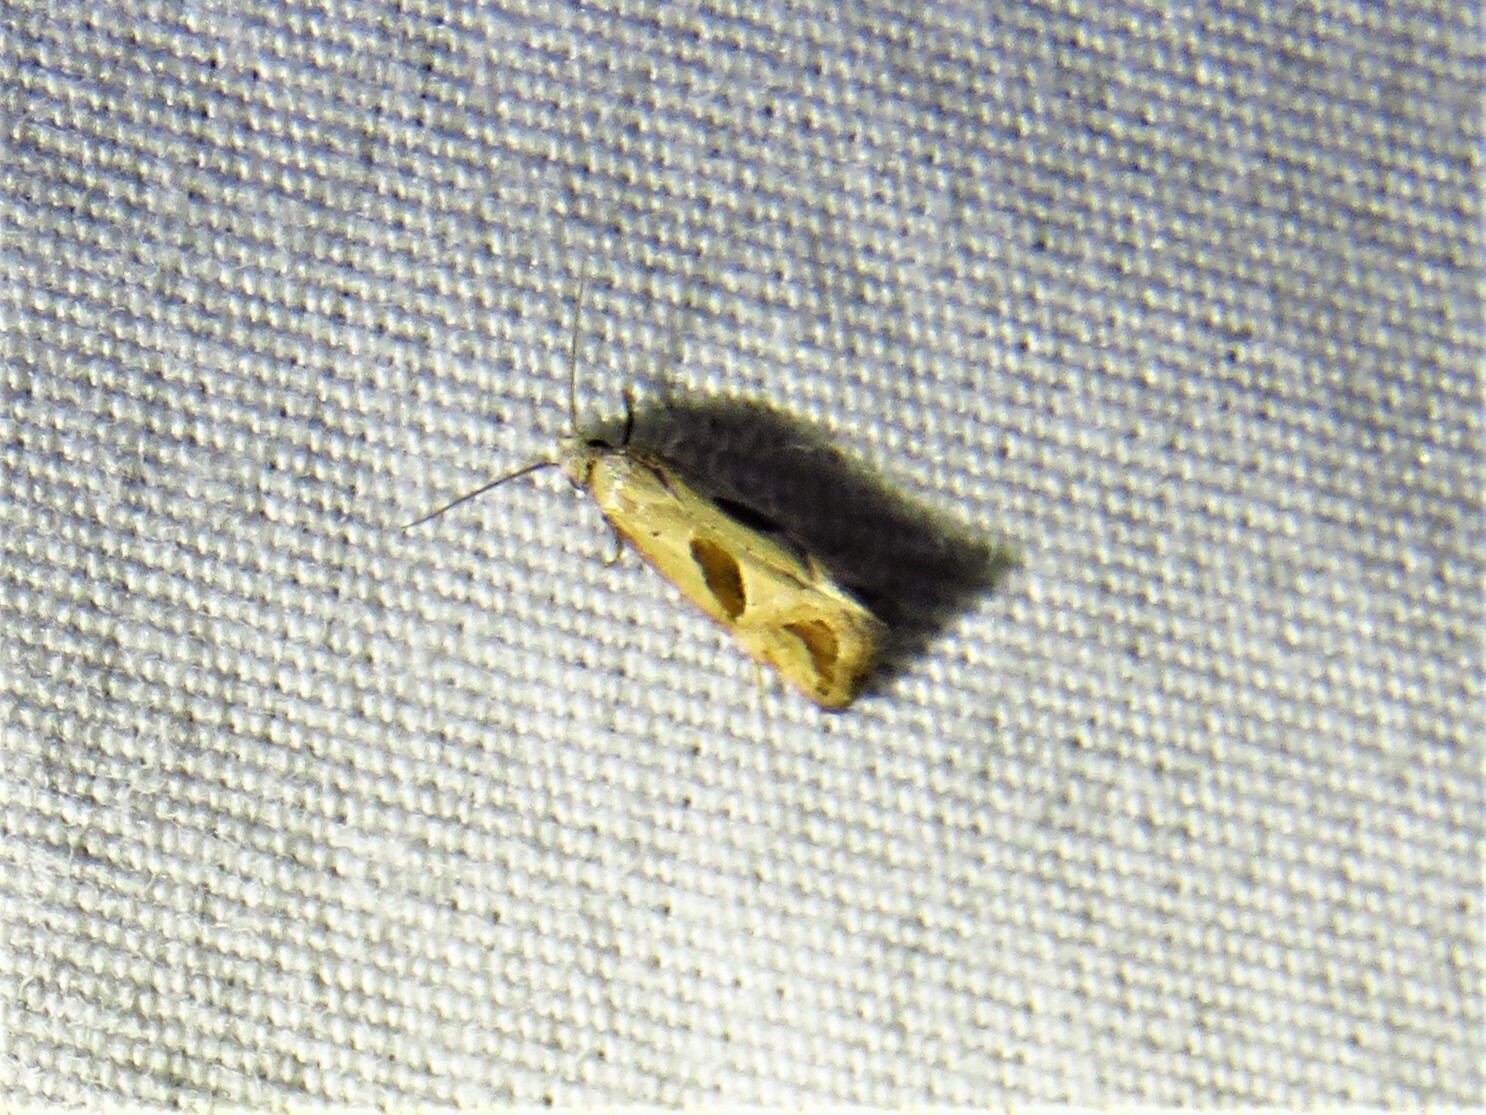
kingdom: Animalia
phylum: Arthropoda
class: Insecta
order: Lepidoptera
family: Tortricidae
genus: Eugnosta
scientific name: Eugnosta bimaculana
